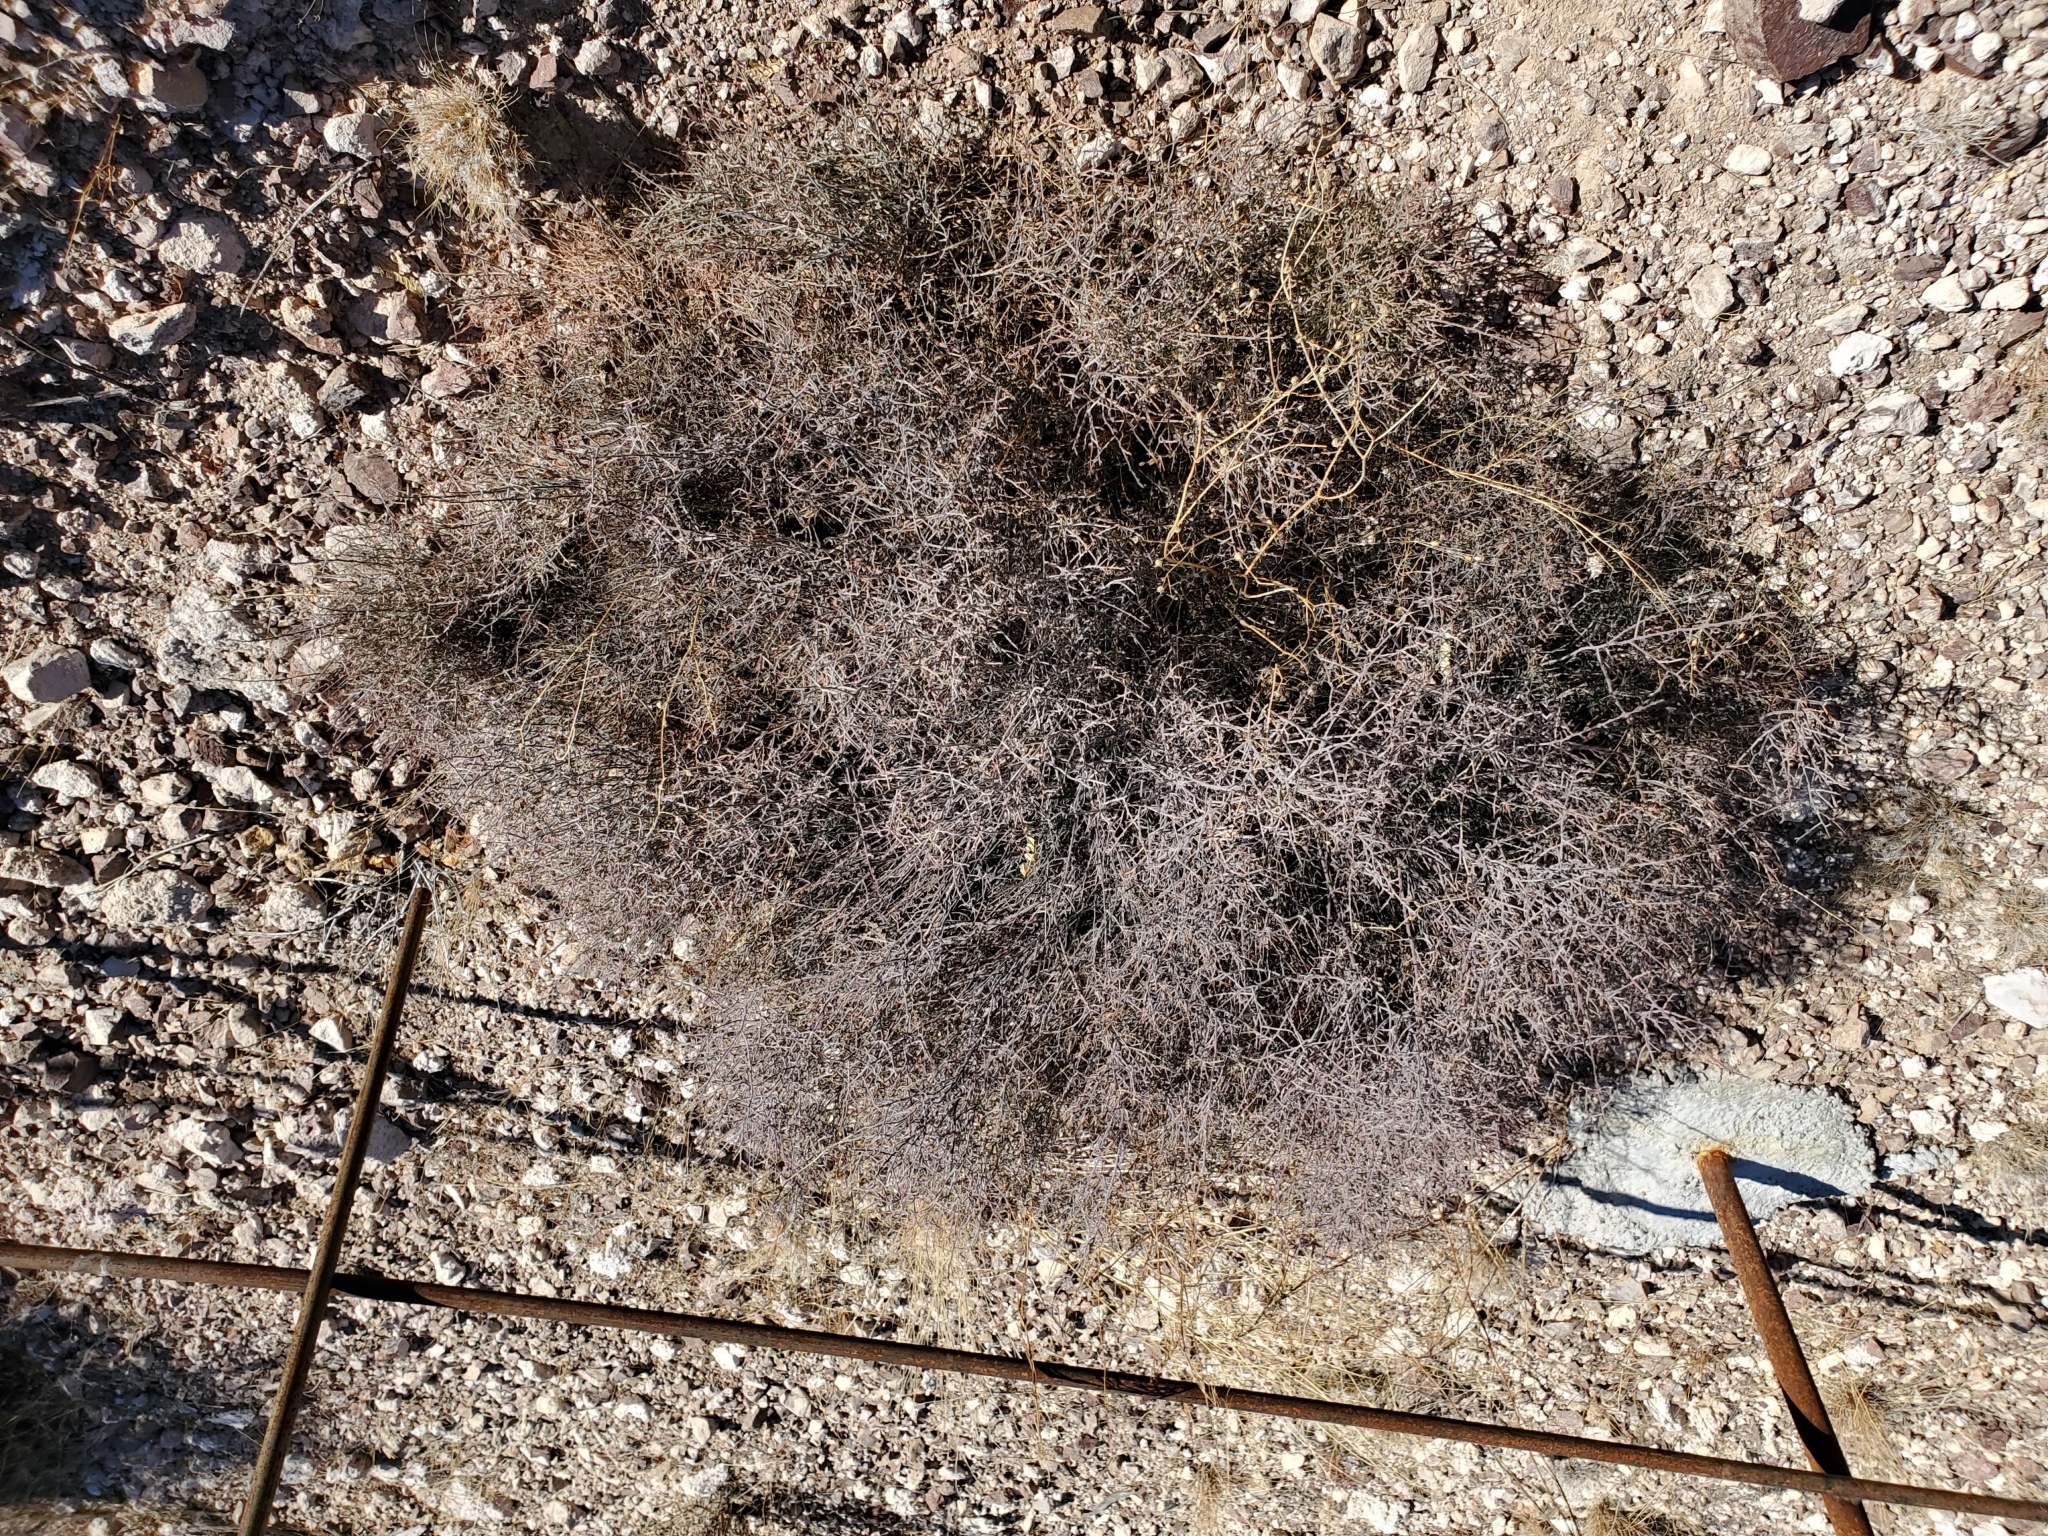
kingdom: Plantae
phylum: Tracheophyta
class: Magnoliopsida
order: Zygophyllales
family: Krameriaceae
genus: Krameria
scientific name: Krameria bicolor
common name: White ratany
